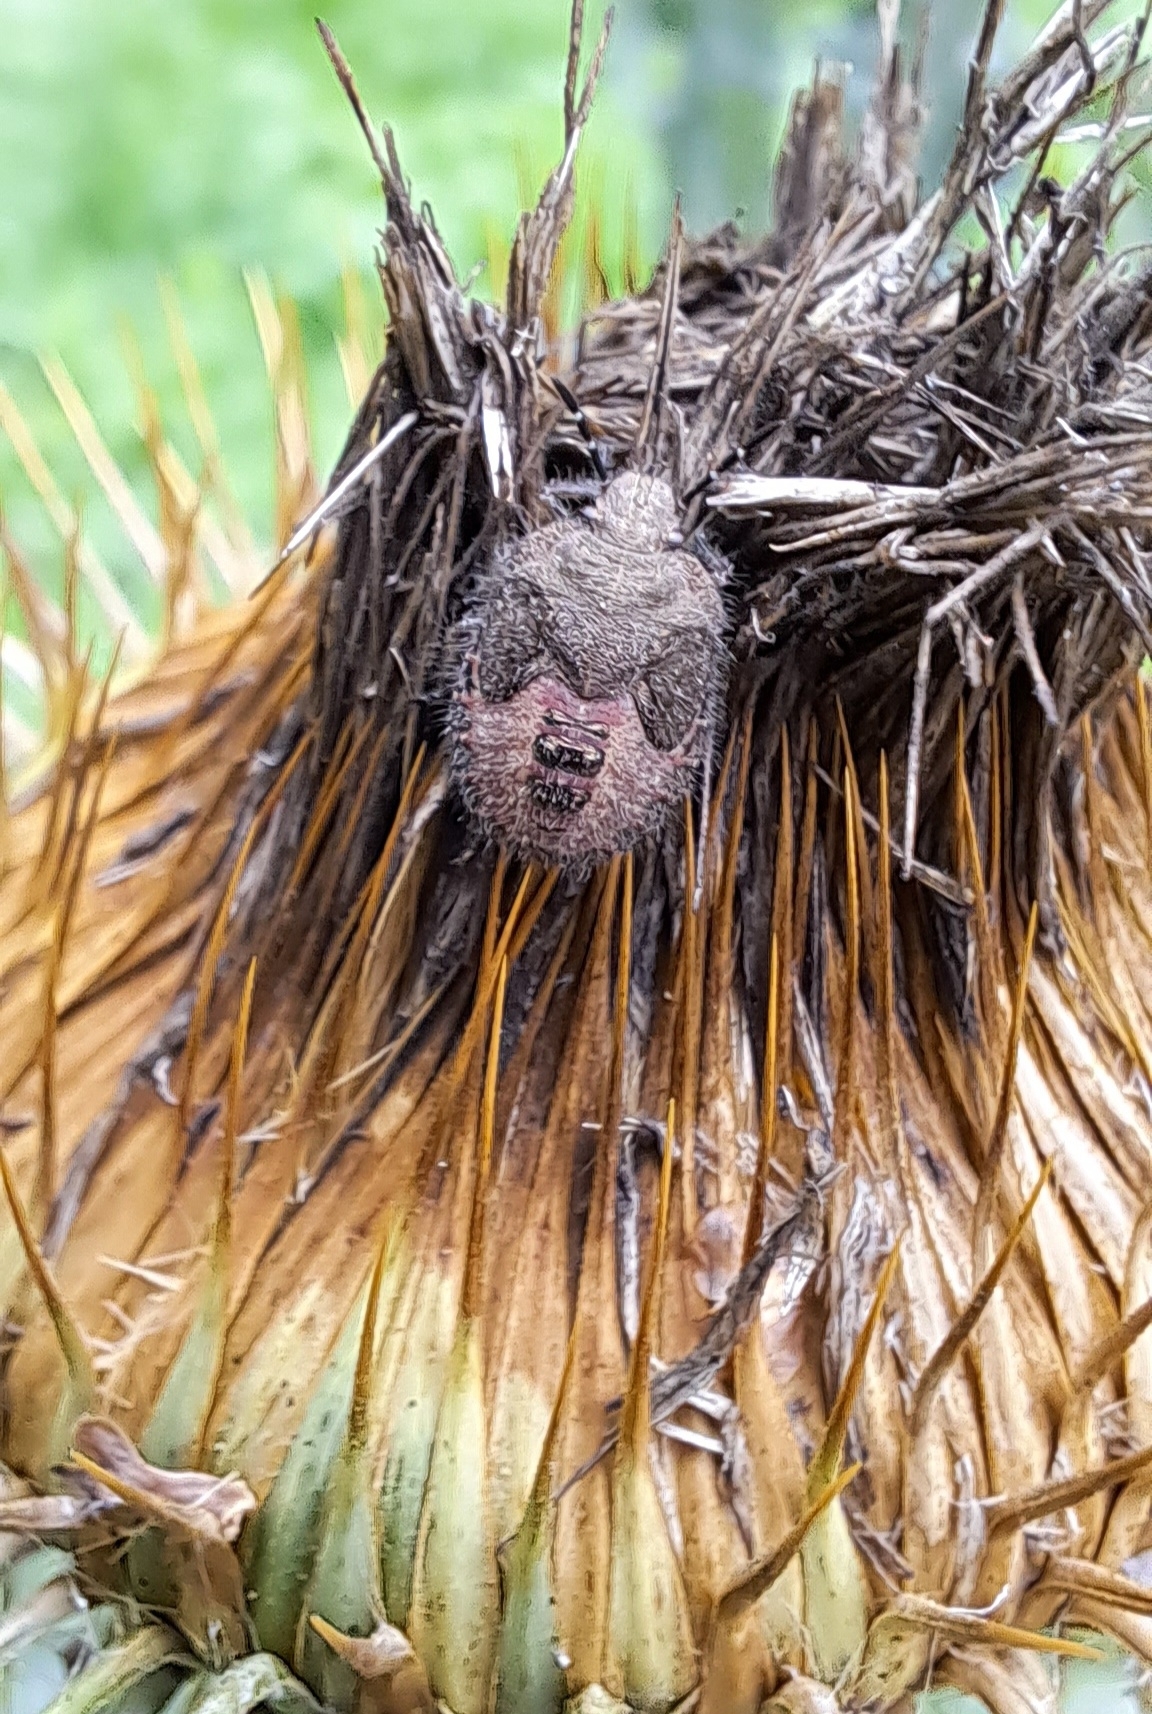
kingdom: Animalia
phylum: Arthropoda
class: Insecta
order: Hemiptera
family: Pentatomidae
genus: Dolycoris
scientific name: Dolycoris baccarum
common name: Sloe bug
